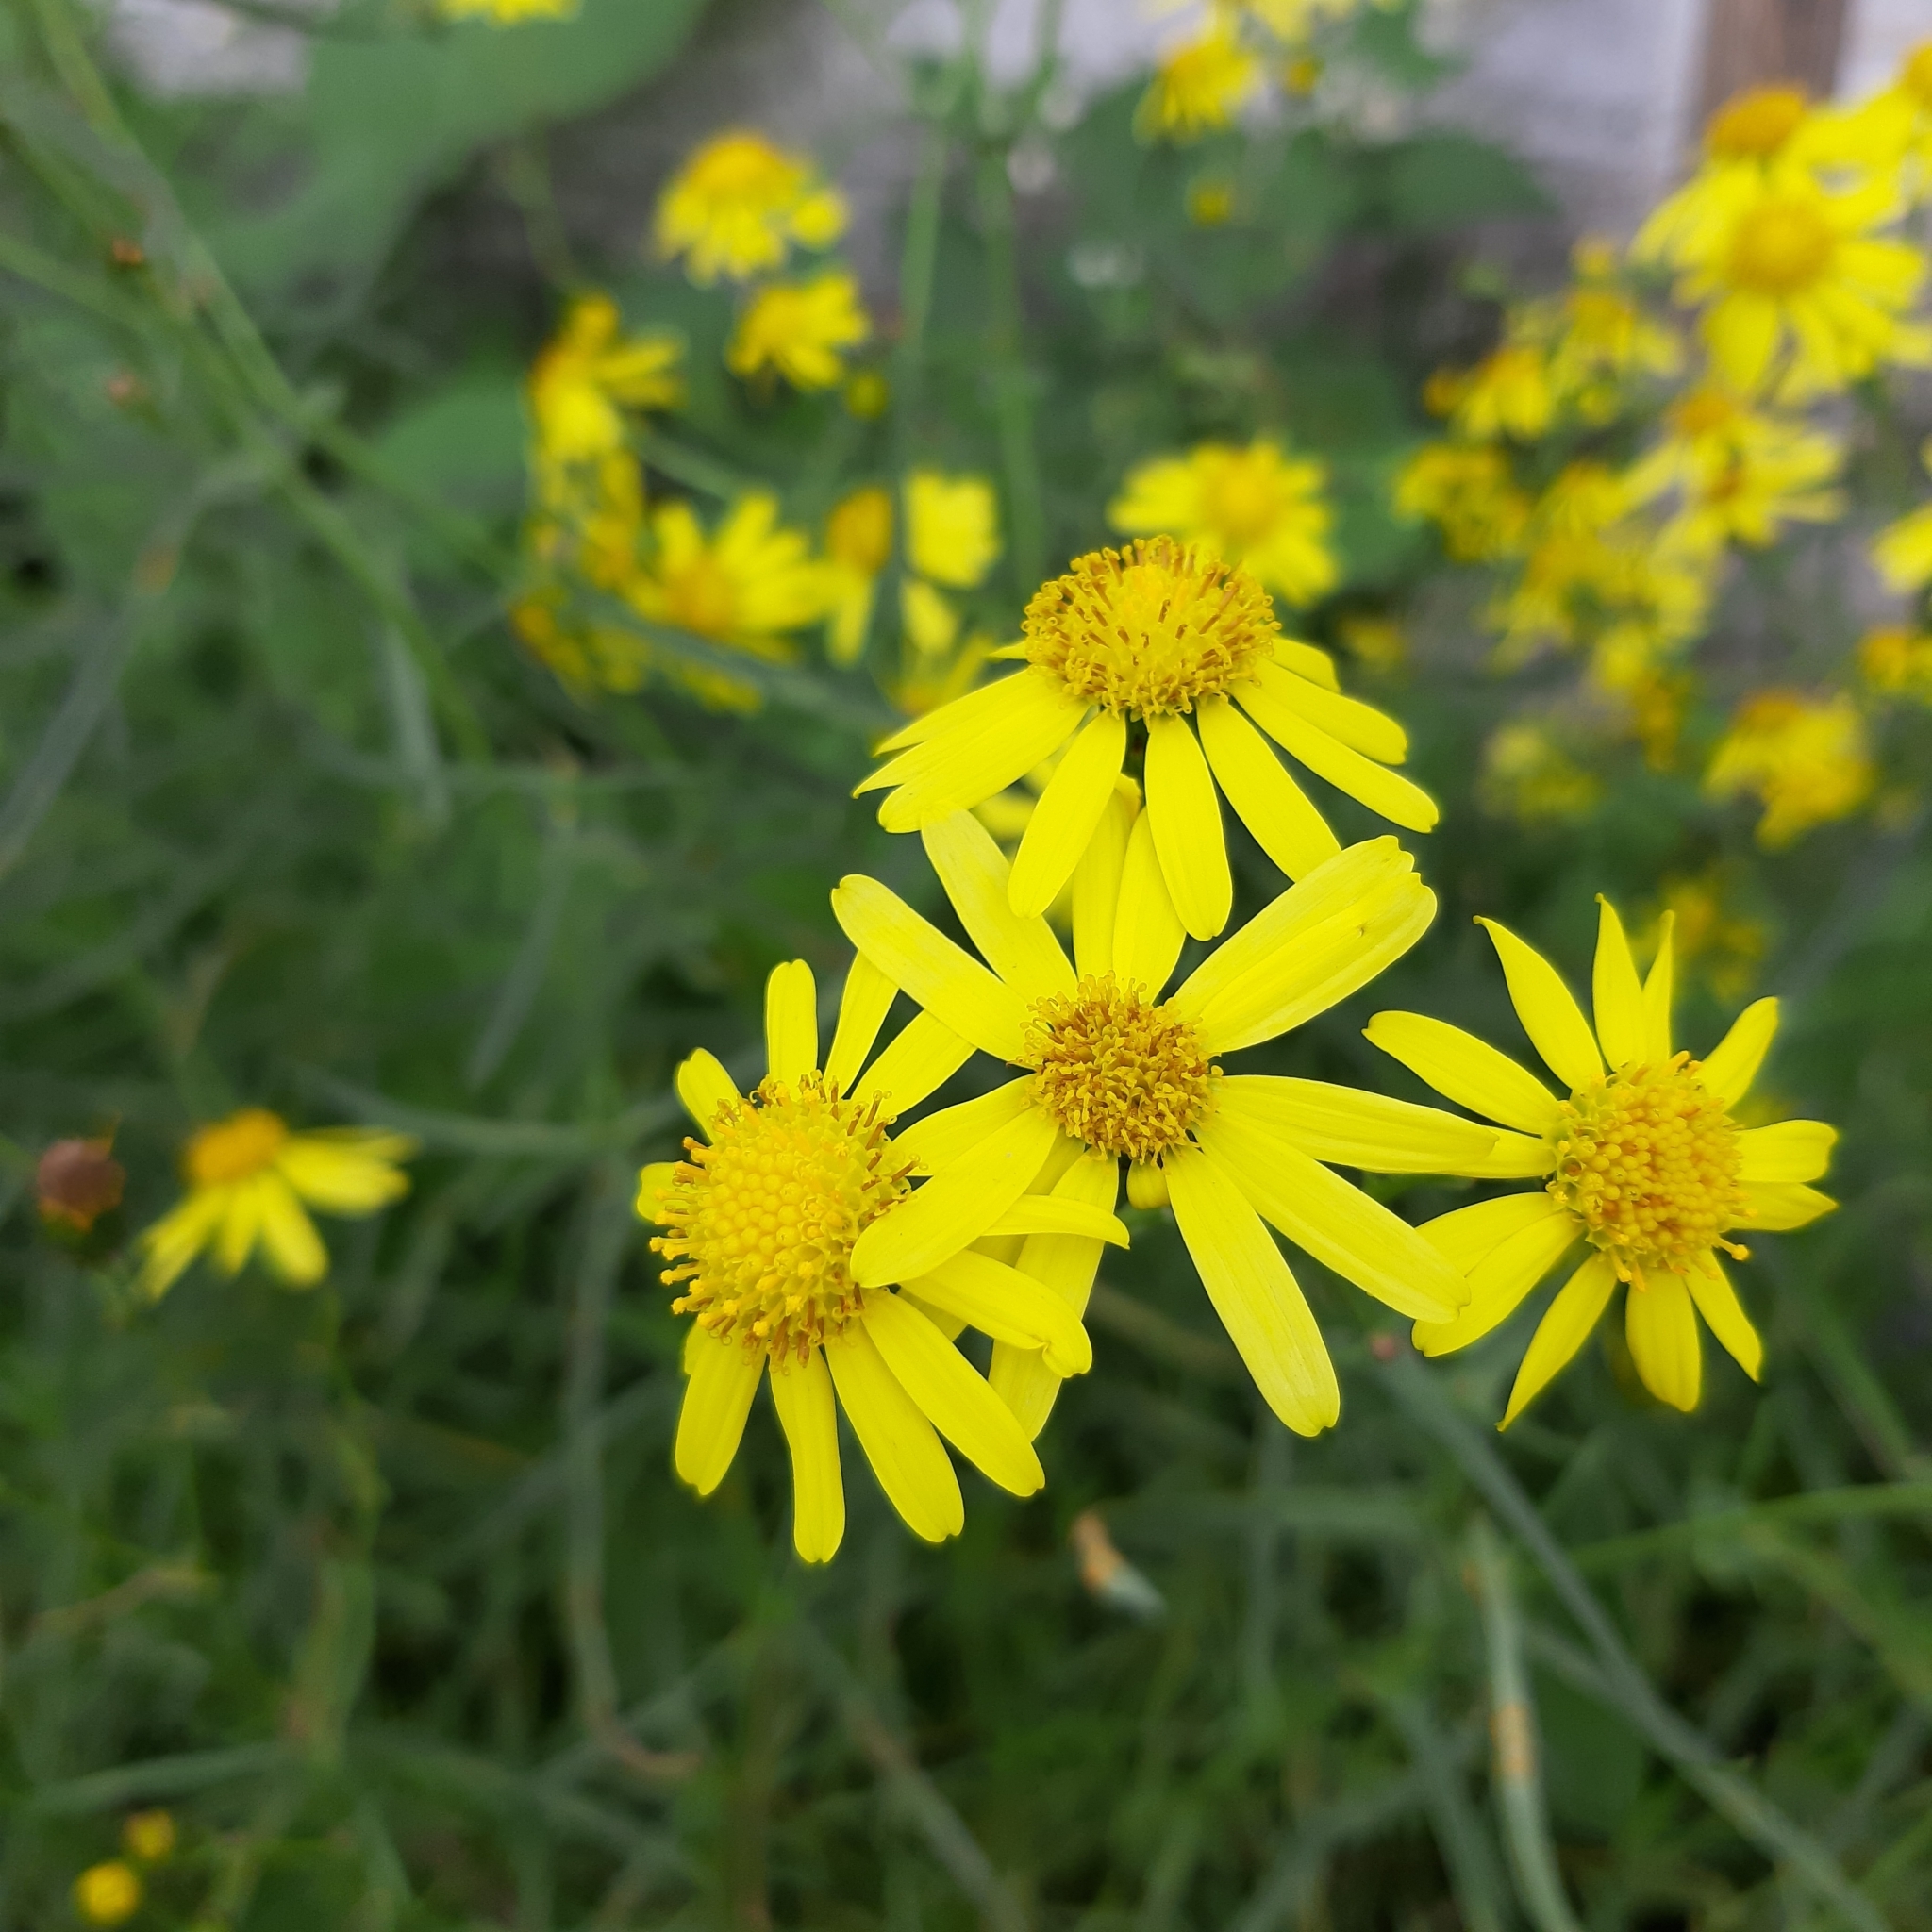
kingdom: Plantae
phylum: Tracheophyta
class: Magnoliopsida
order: Asterales
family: Asteraceae
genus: Senecio
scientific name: Senecio inaequidens
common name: Narrow-leaved ragwort
